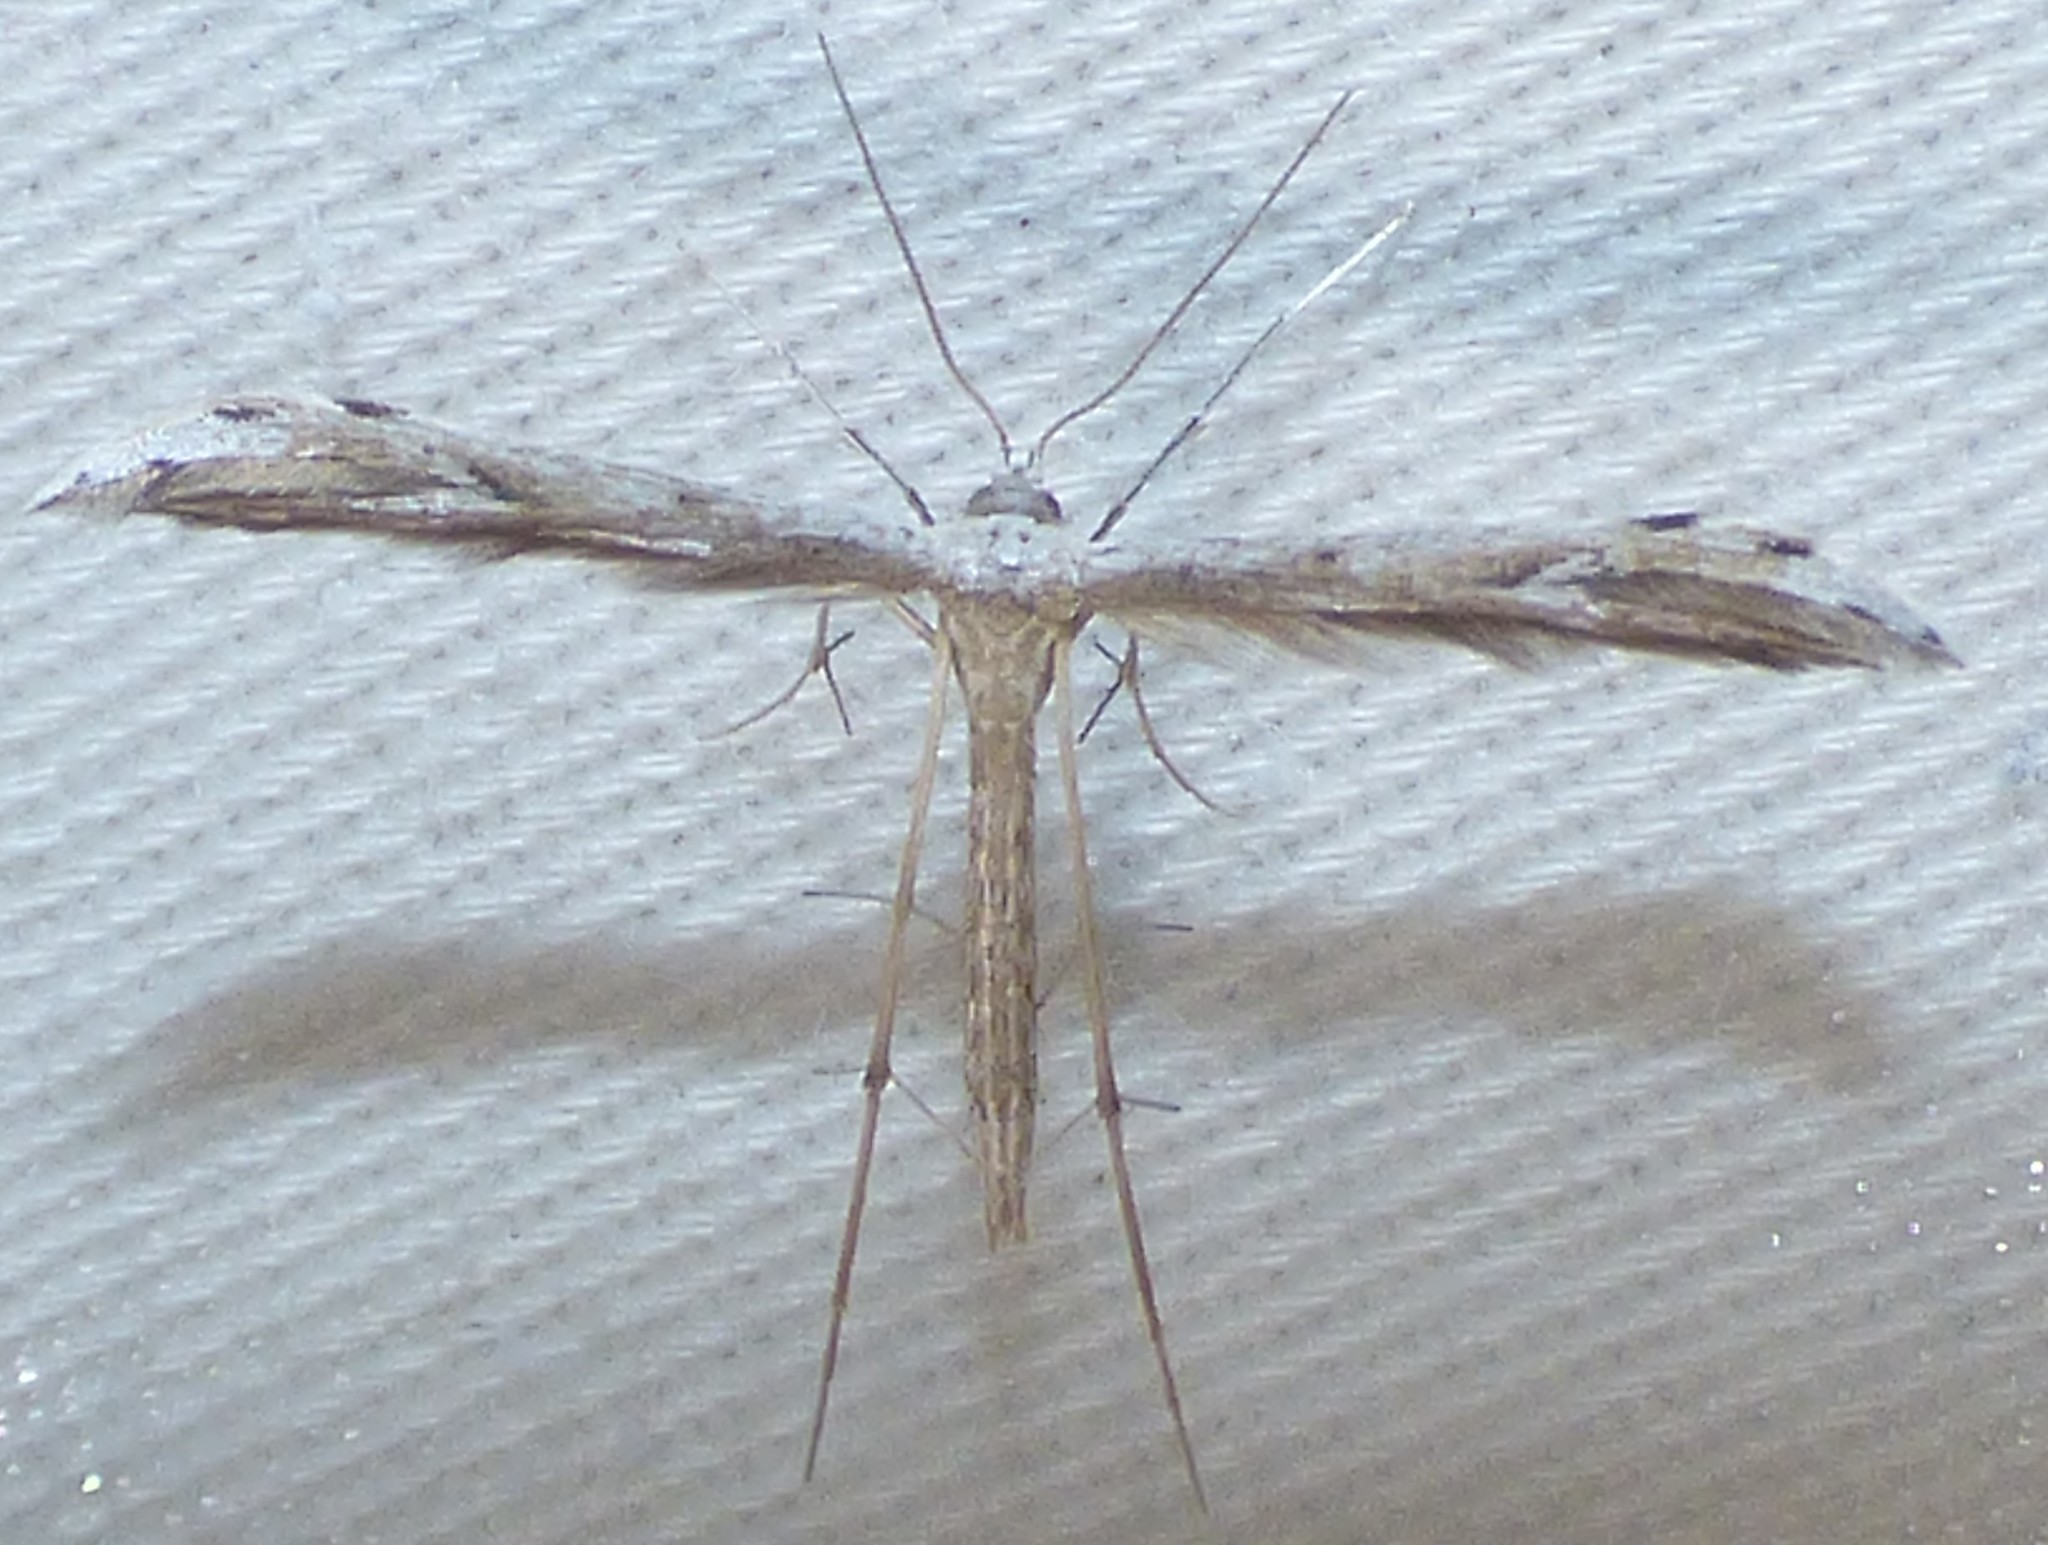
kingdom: Animalia
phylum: Arthropoda
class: Insecta
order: Lepidoptera
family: Pterophoridae
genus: Pselnophorus
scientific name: Pselnophorus belfragei
